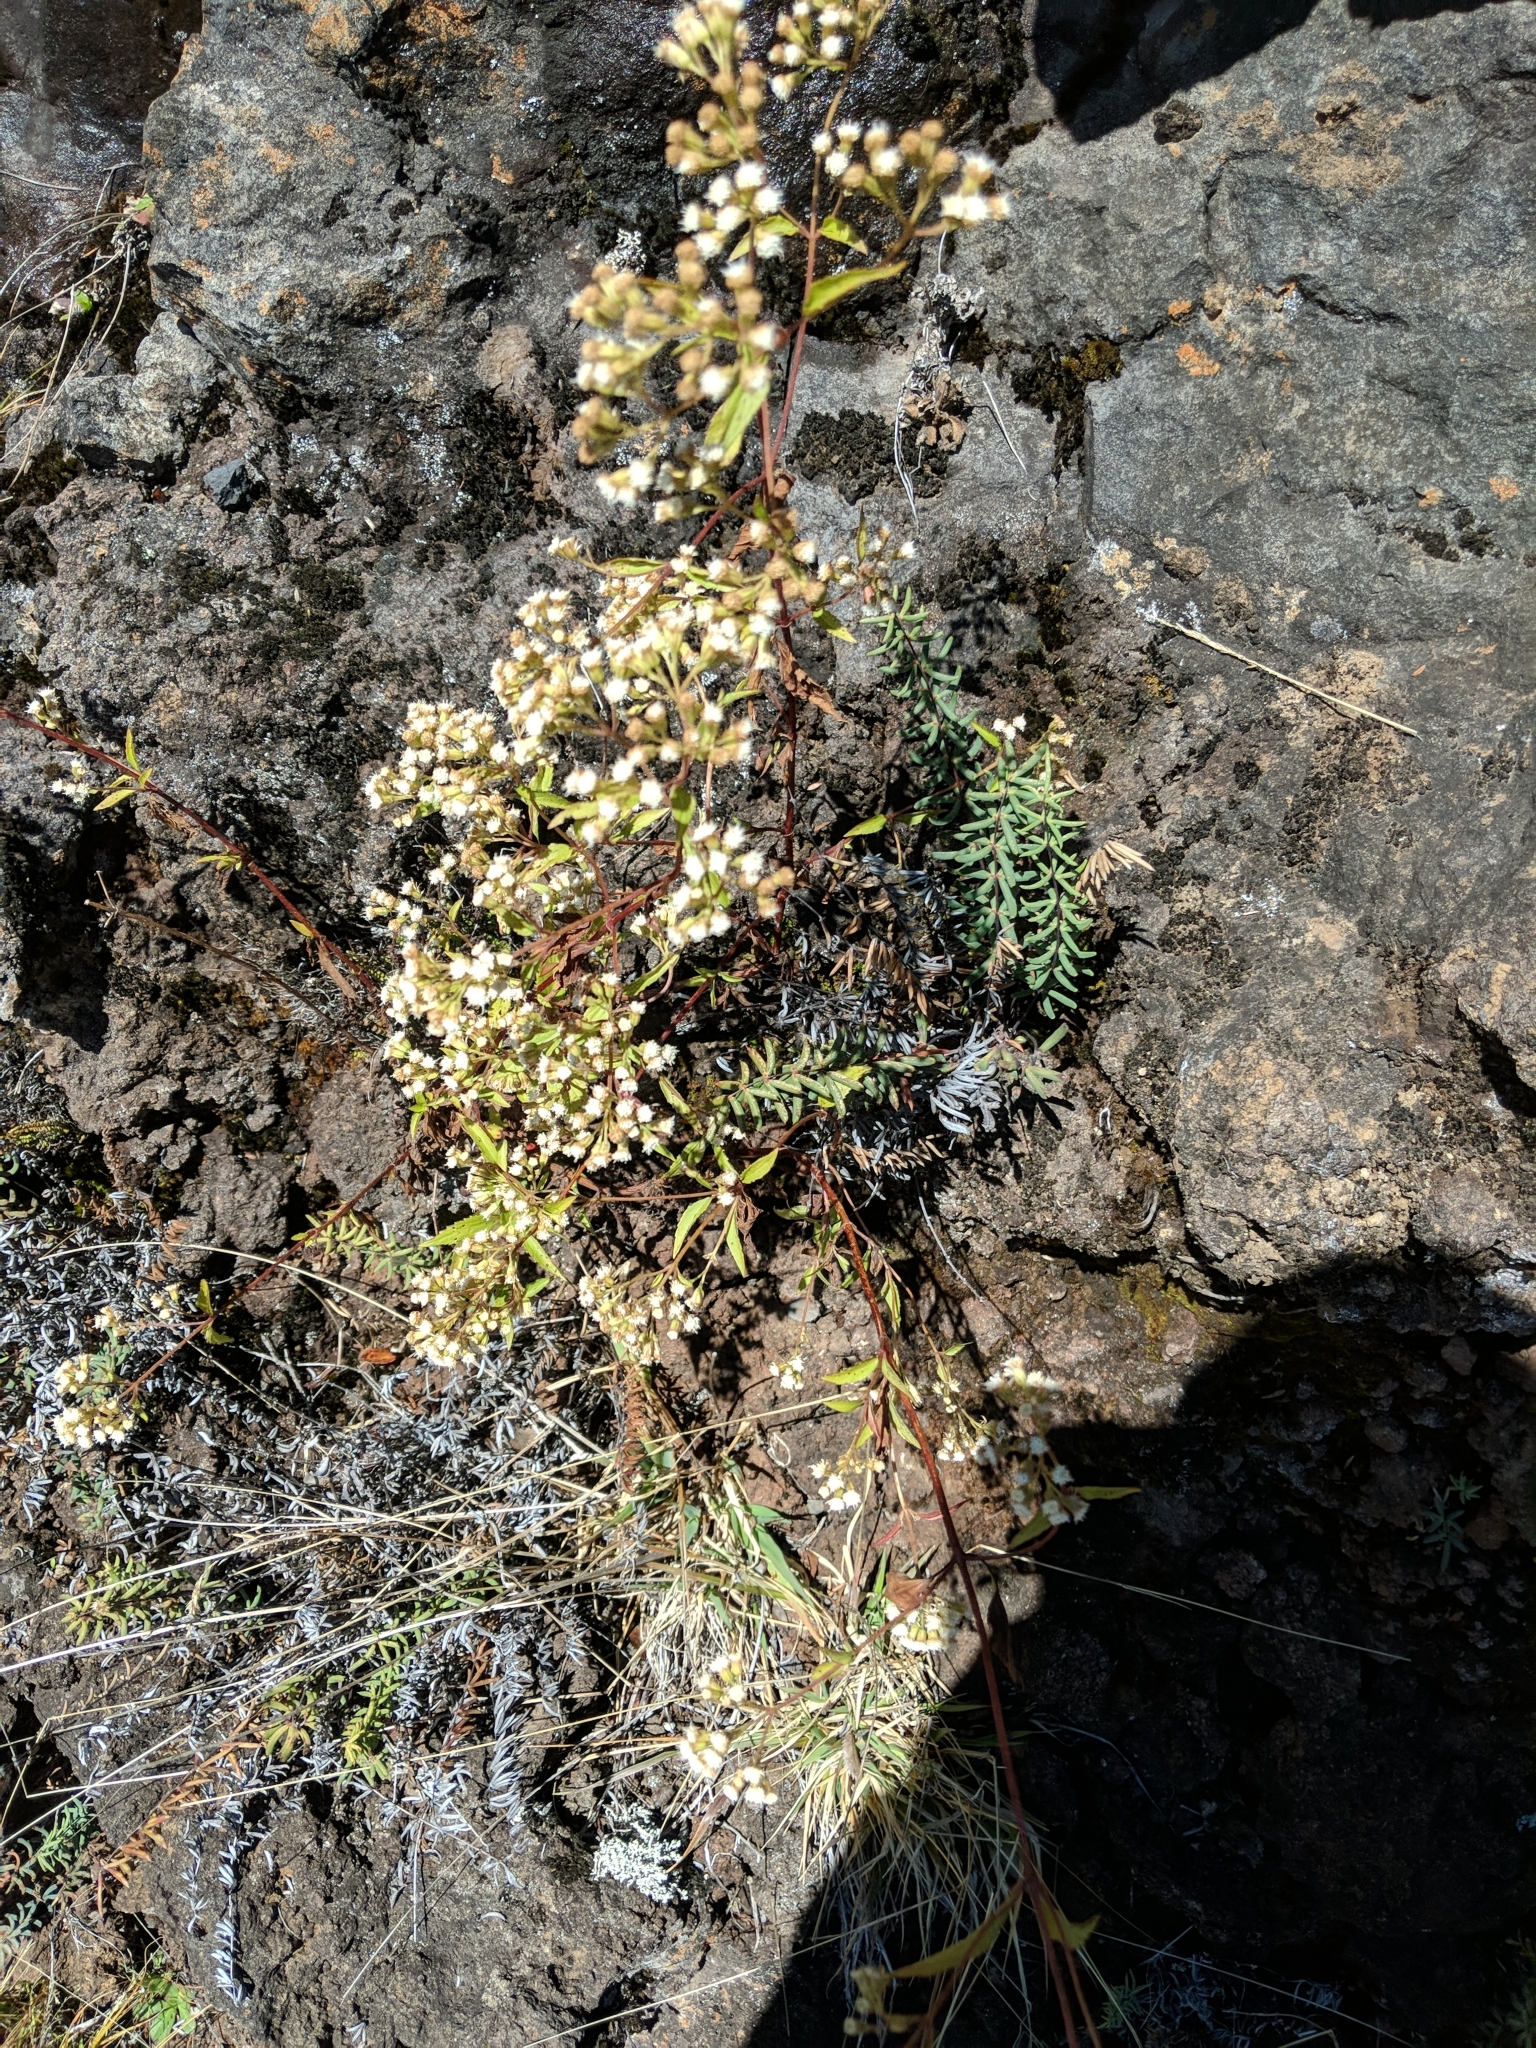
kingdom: Plantae
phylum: Tracheophyta
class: Magnoliopsida
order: Asterales
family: Asteraceae
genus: Ageratina
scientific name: Ageratina riparia
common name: Creeping croftonweed
